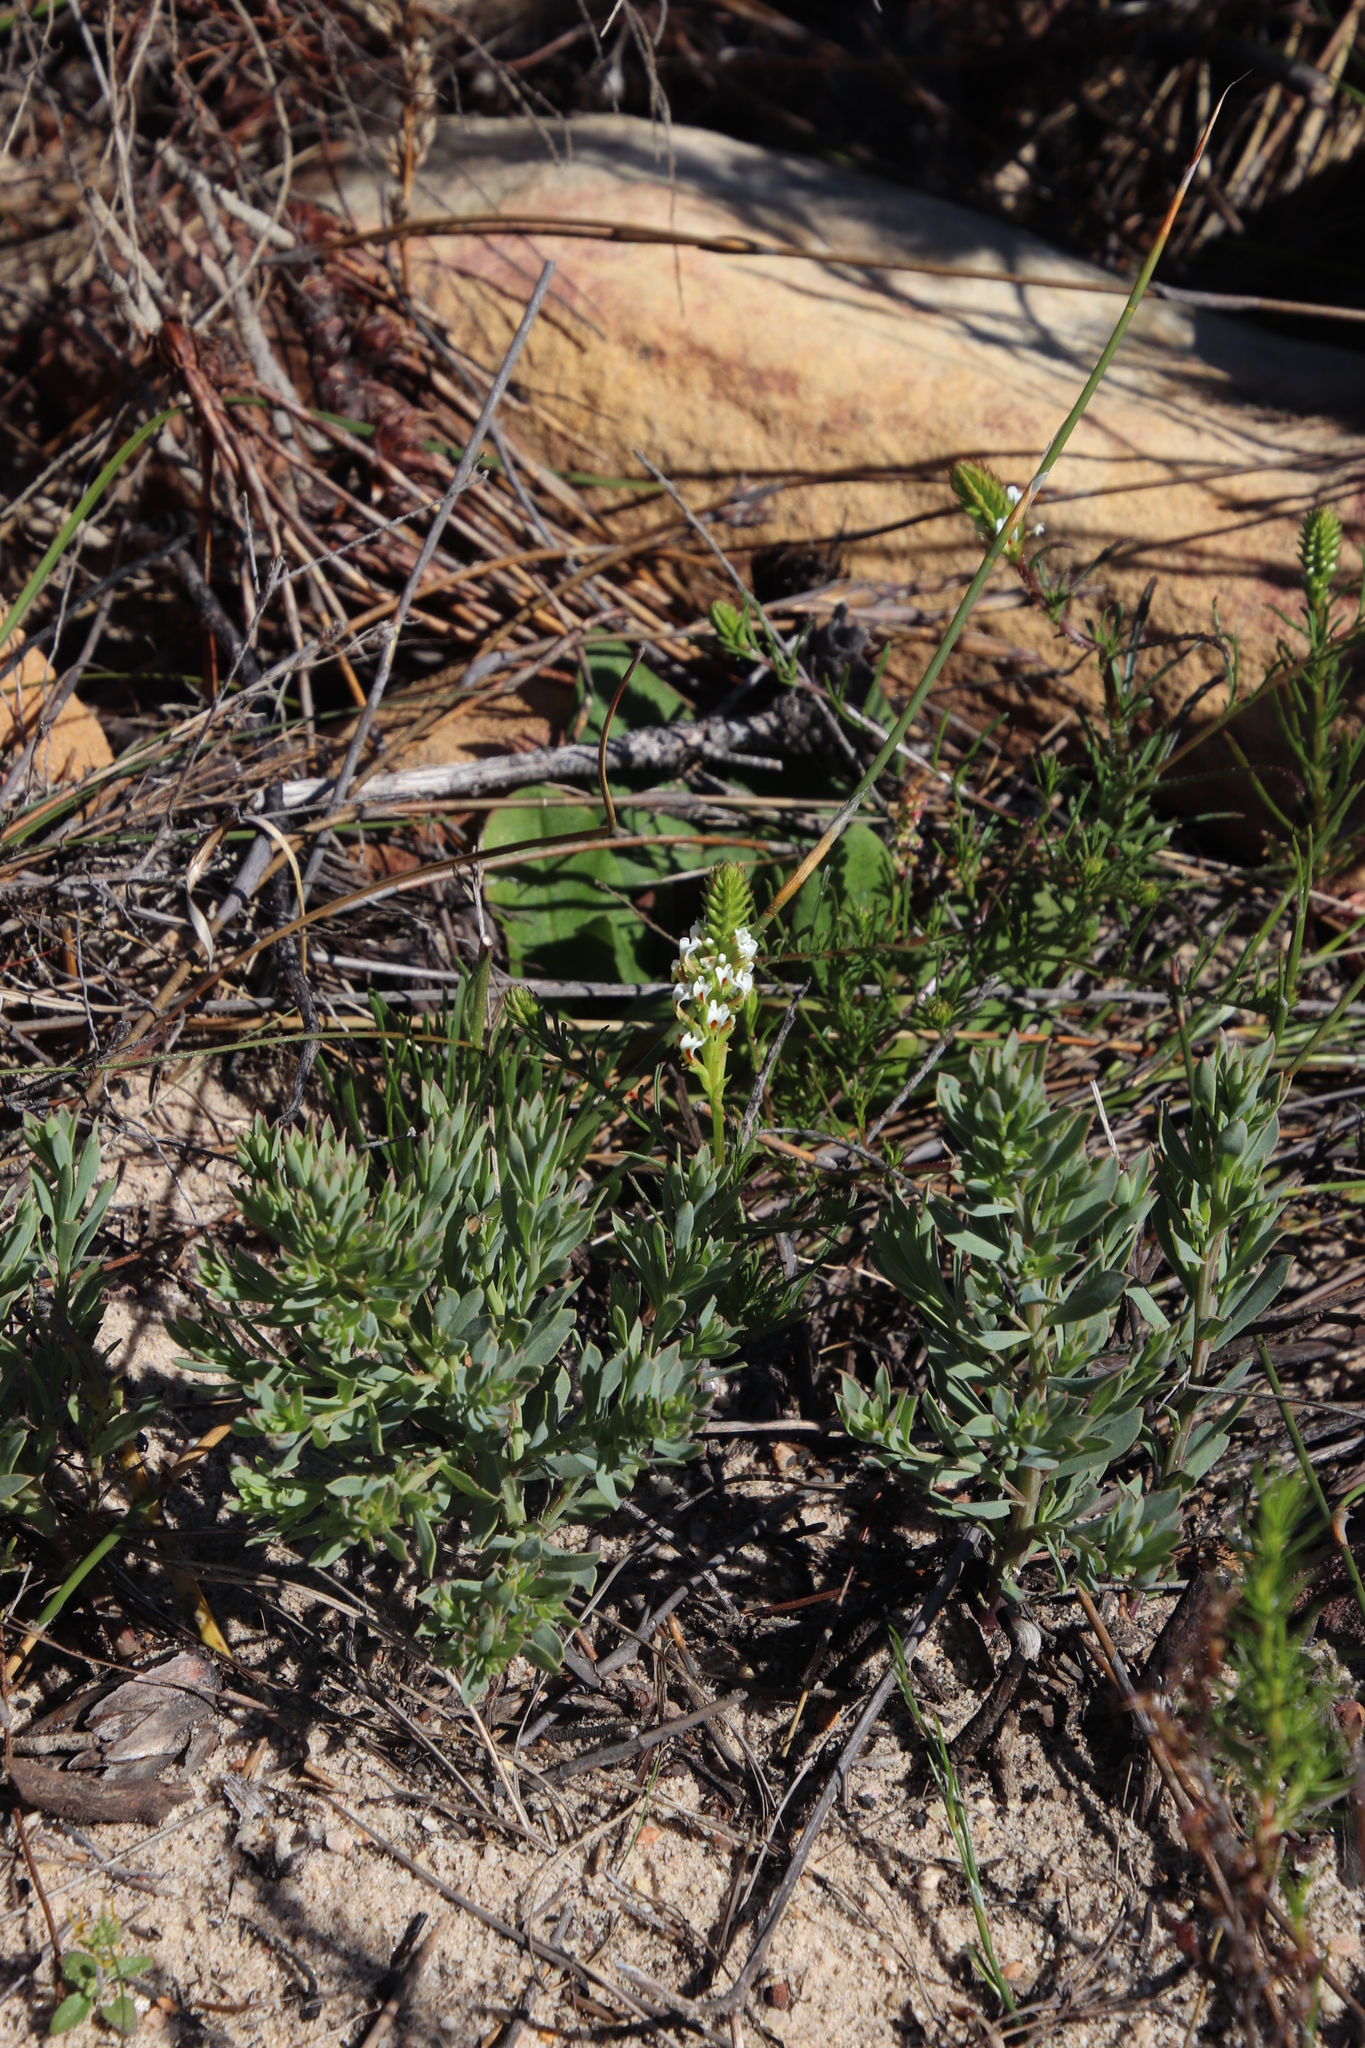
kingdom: Plantae
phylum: Tracheophyta
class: Magnoliopsida
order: Lamiales
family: Scrophulariaceae
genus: Hebenstretia
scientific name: Hebenstretia repens
